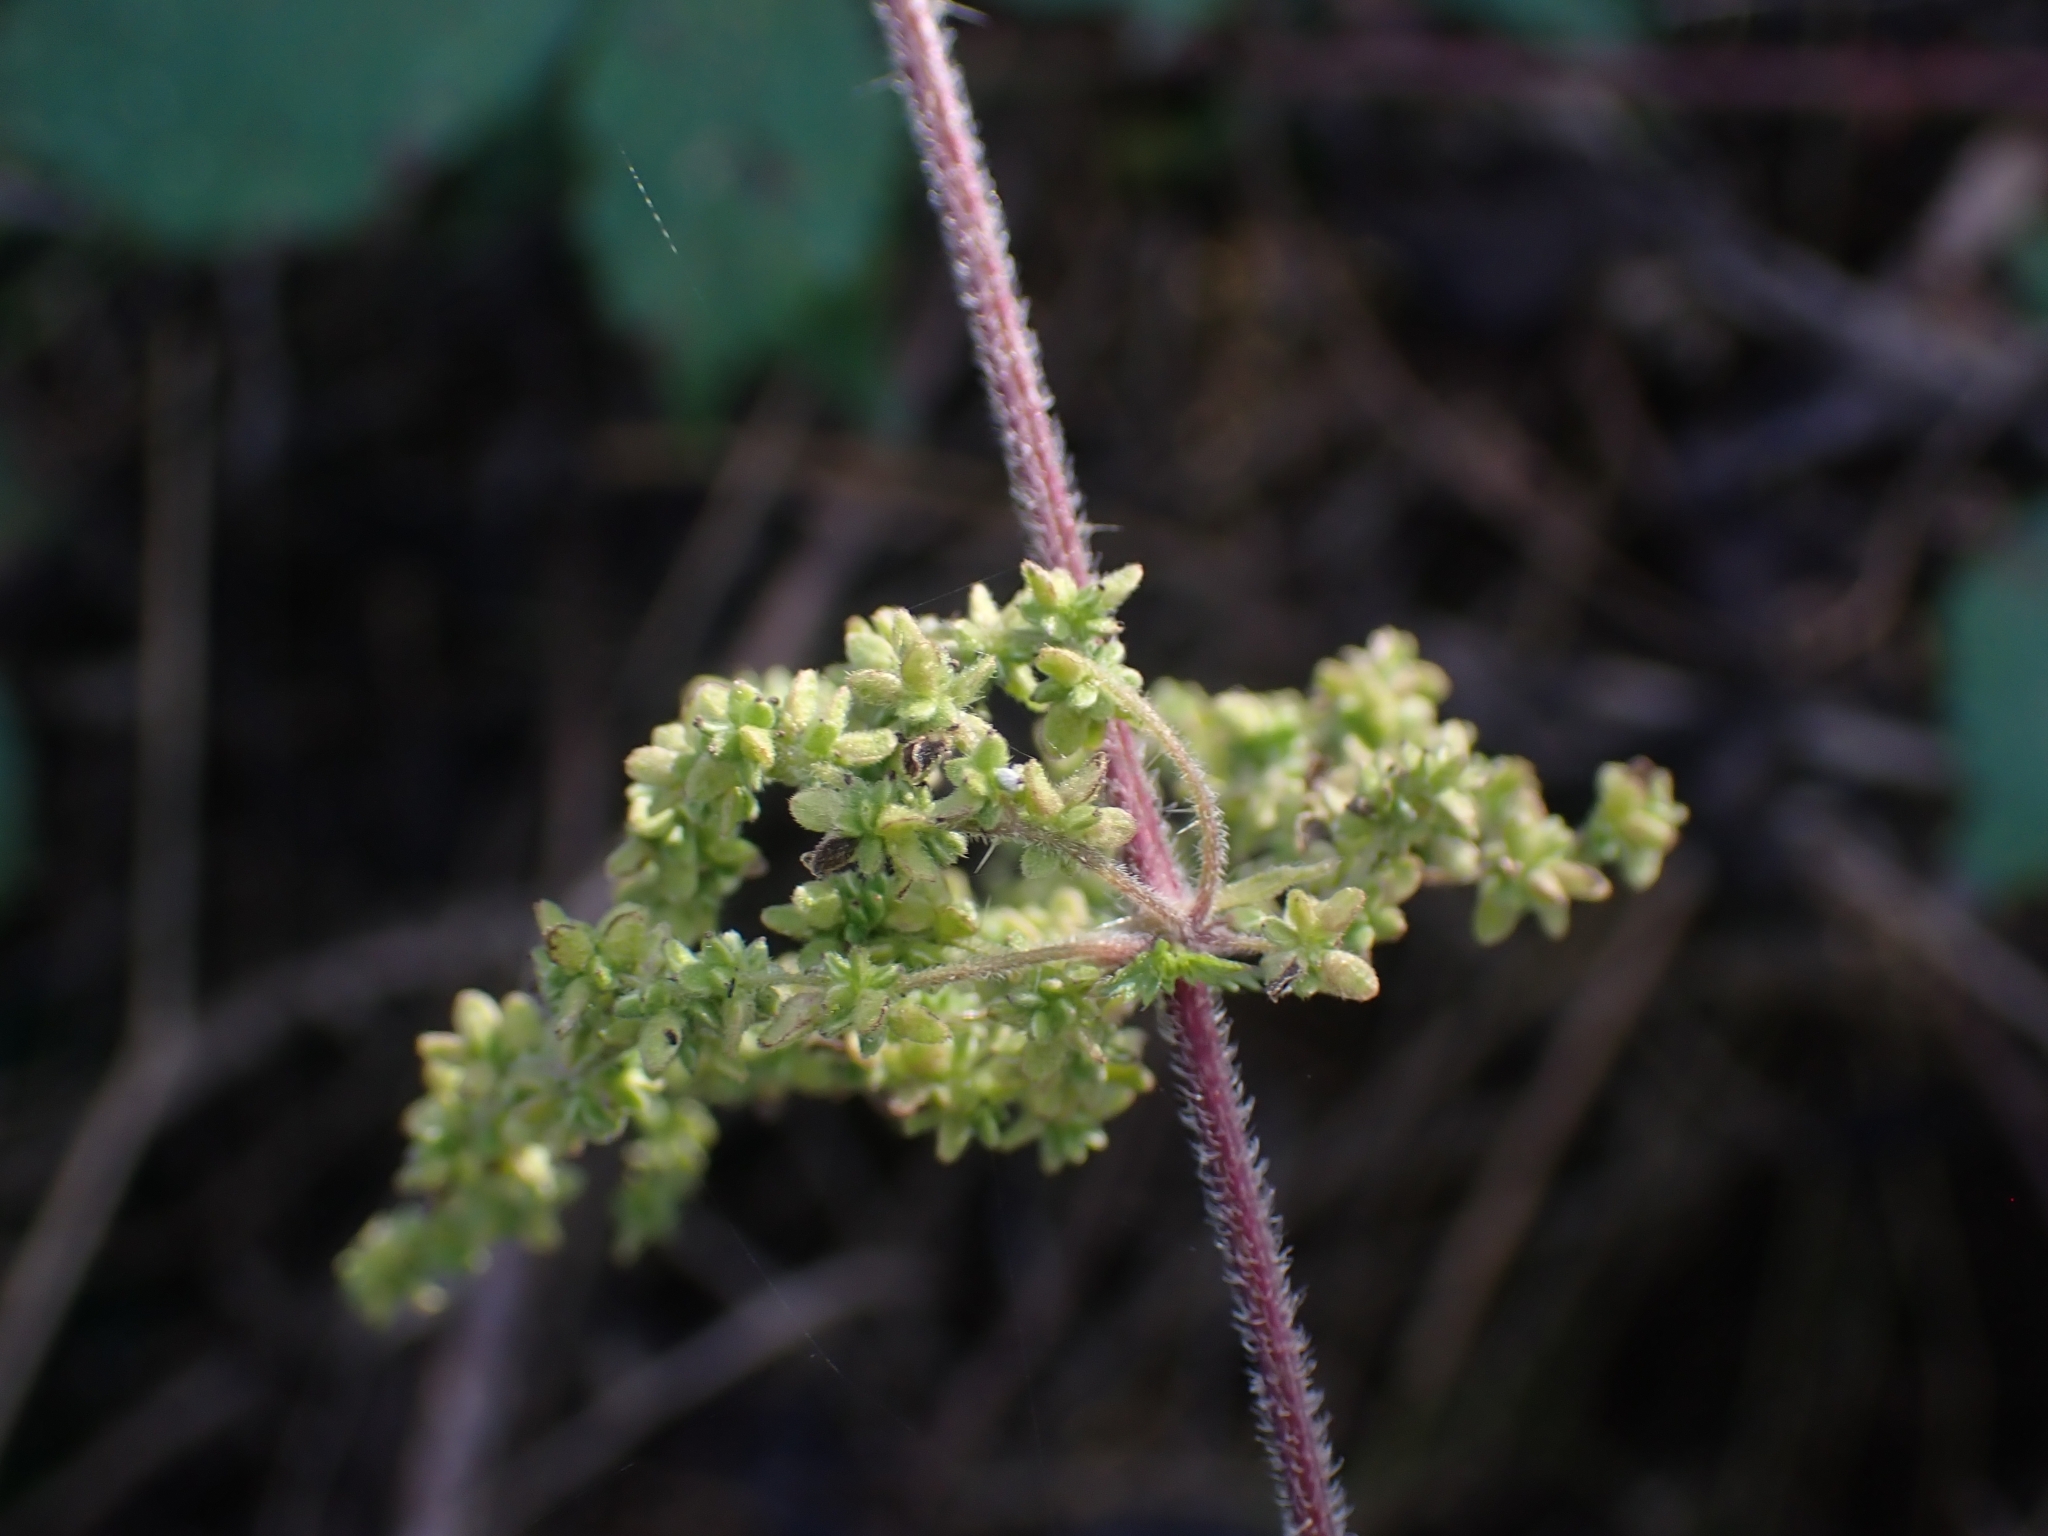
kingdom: Plantae
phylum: Tracheophyta
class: Magnoliopsida
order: Rosales
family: Urticaceae
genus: Urtica
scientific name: Urtica dioica
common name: Common nettle
